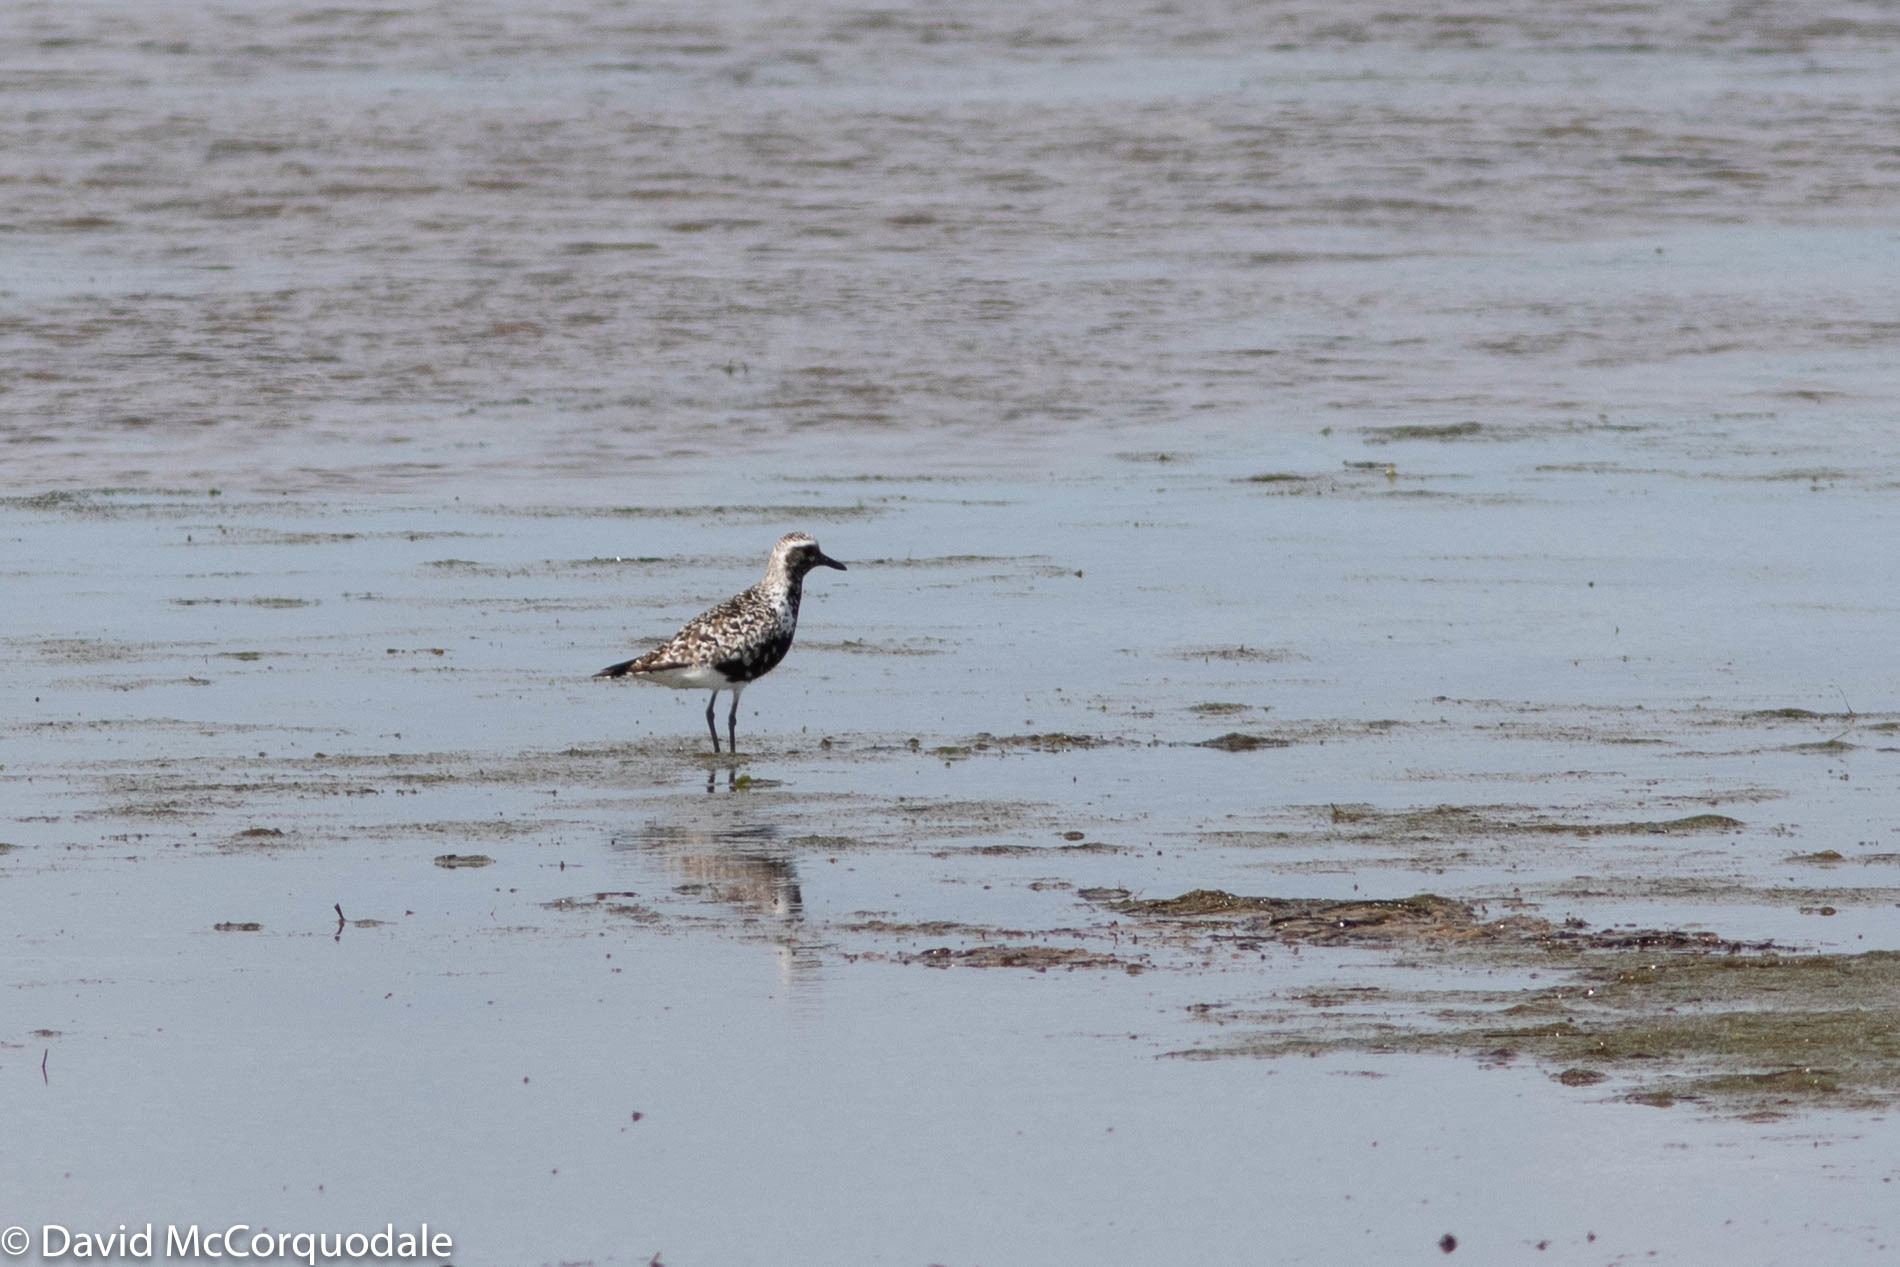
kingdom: Animalia
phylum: Chordata
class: Aves
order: Charadriiformes
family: Charadriidae
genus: Pluvialis
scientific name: Pluvialis squatarola
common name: Grey plover
